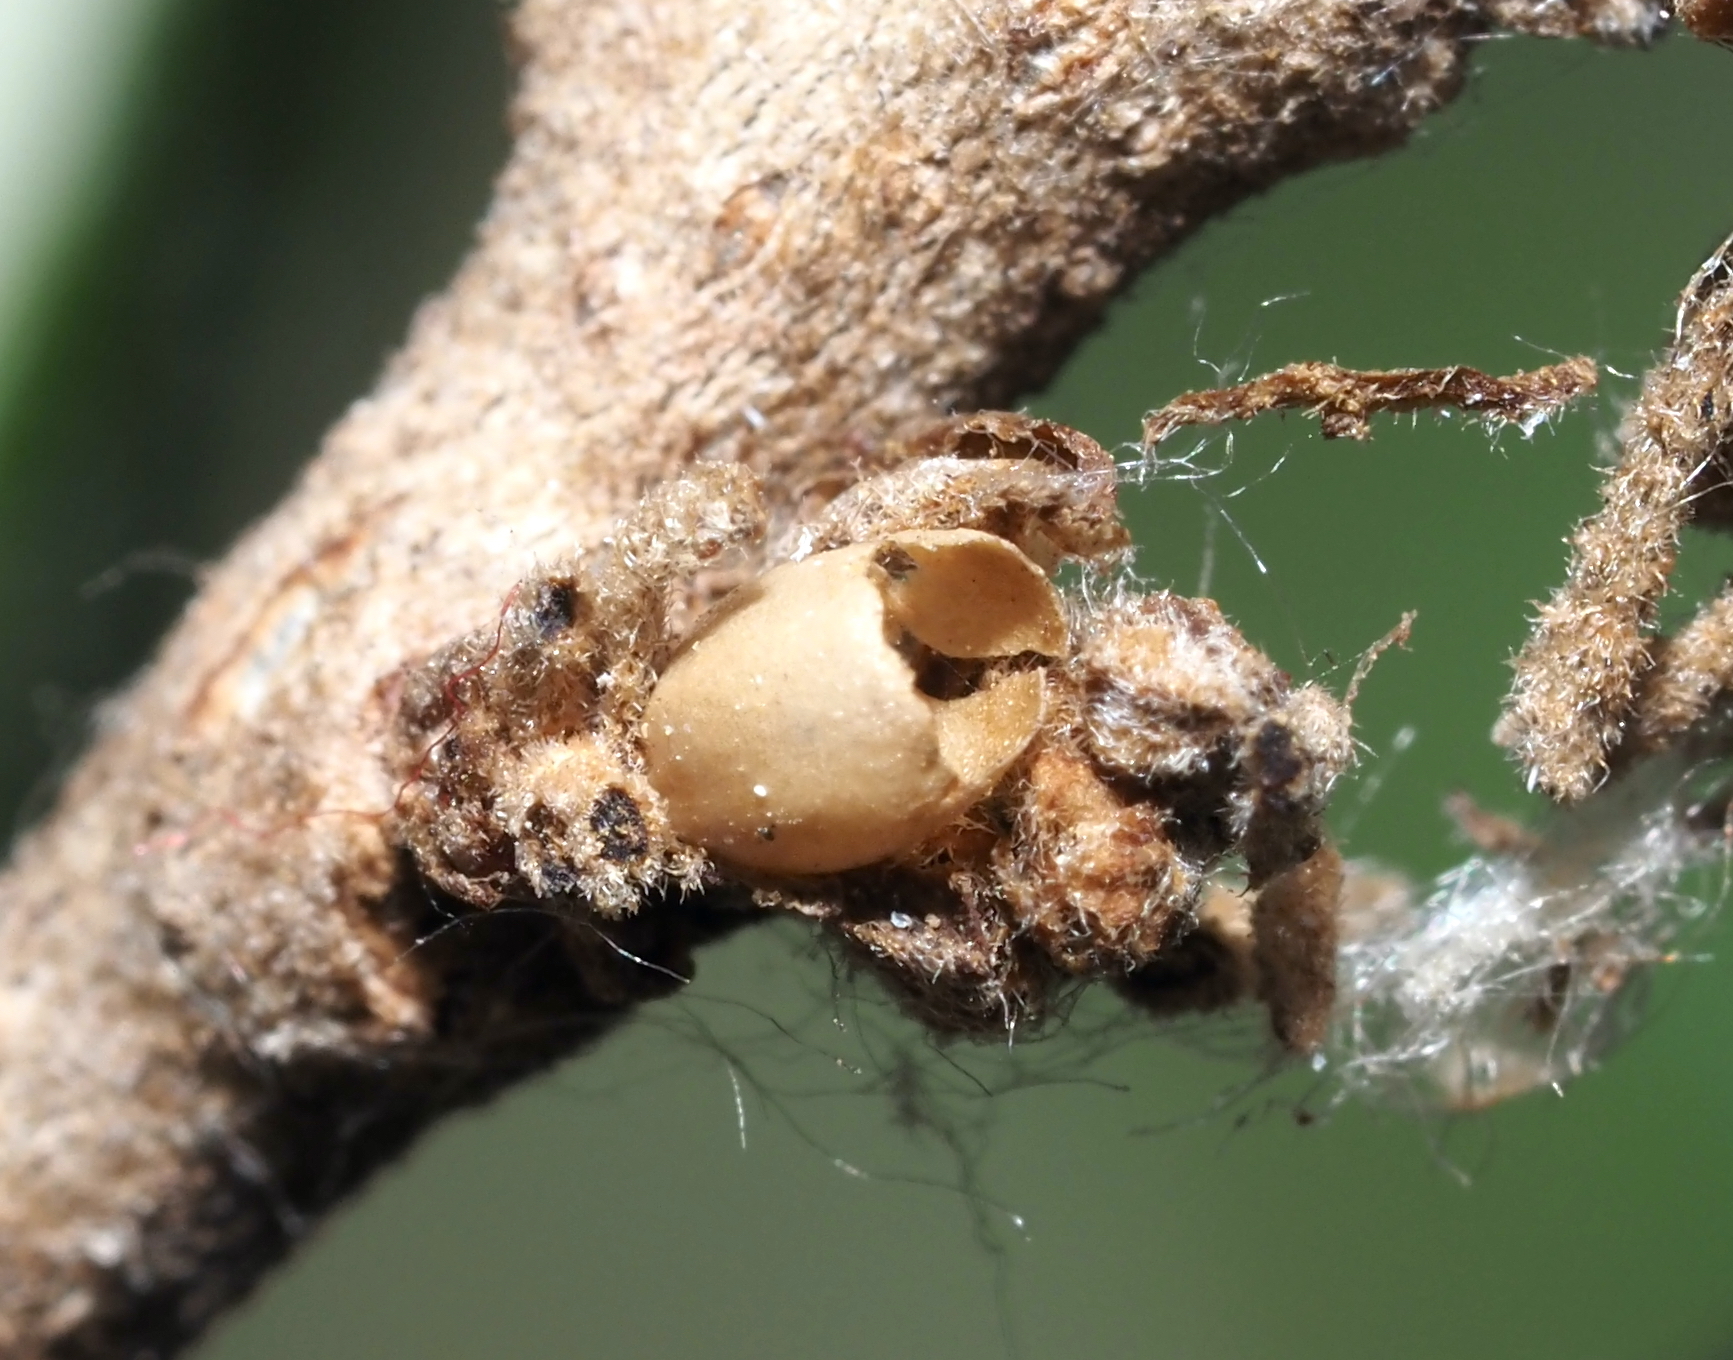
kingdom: Animalia
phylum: Arthropoda
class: Insecta
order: Hymenoptera
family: Cynipidae
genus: Disholcaspis
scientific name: Disholcaspis
